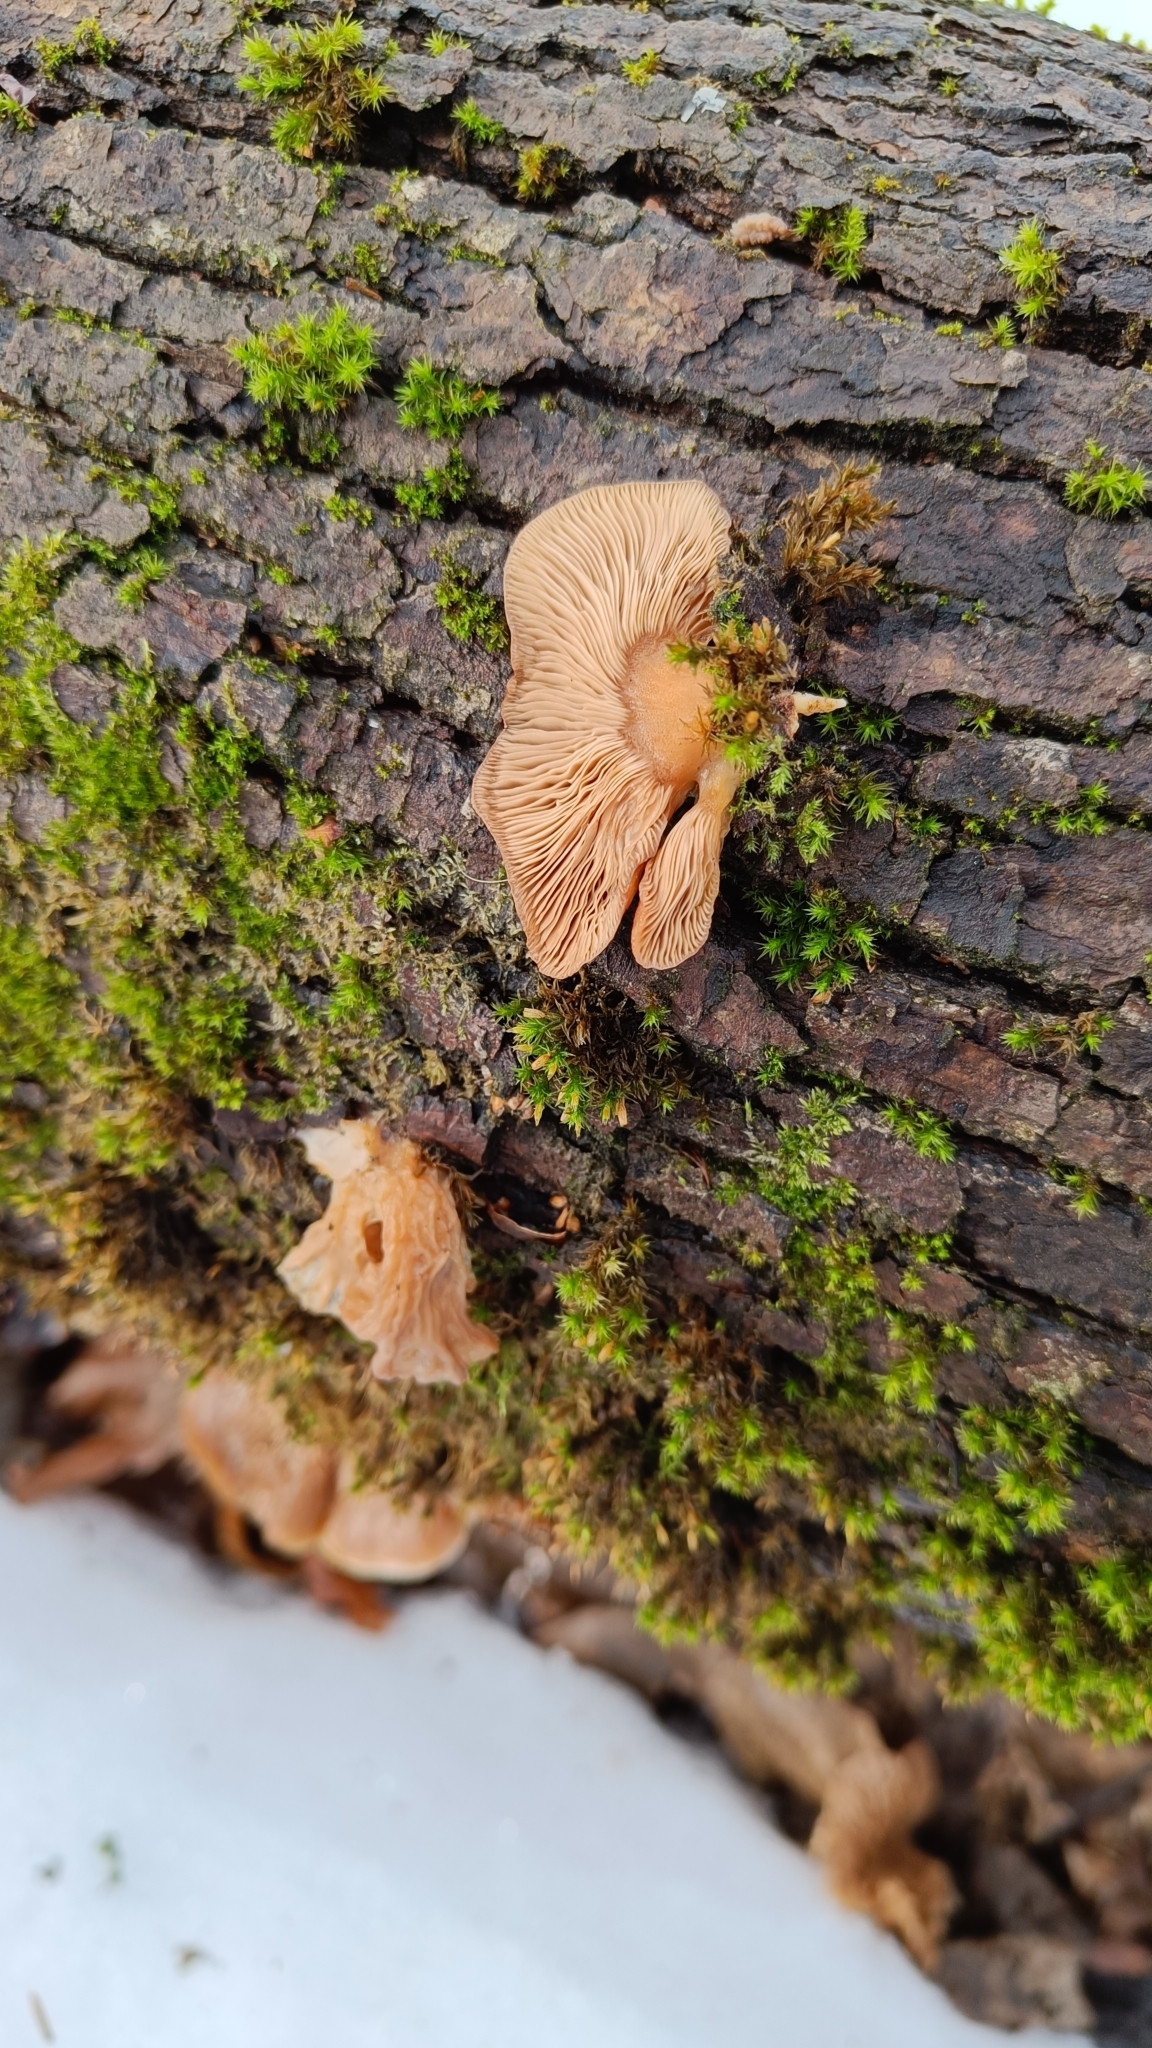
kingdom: Fungi
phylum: Basidiomycota
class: Agaricomycetes
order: Agaricales
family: Sarcomyxaceae
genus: Sarcomyxa
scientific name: Sarcomyxa serotina
